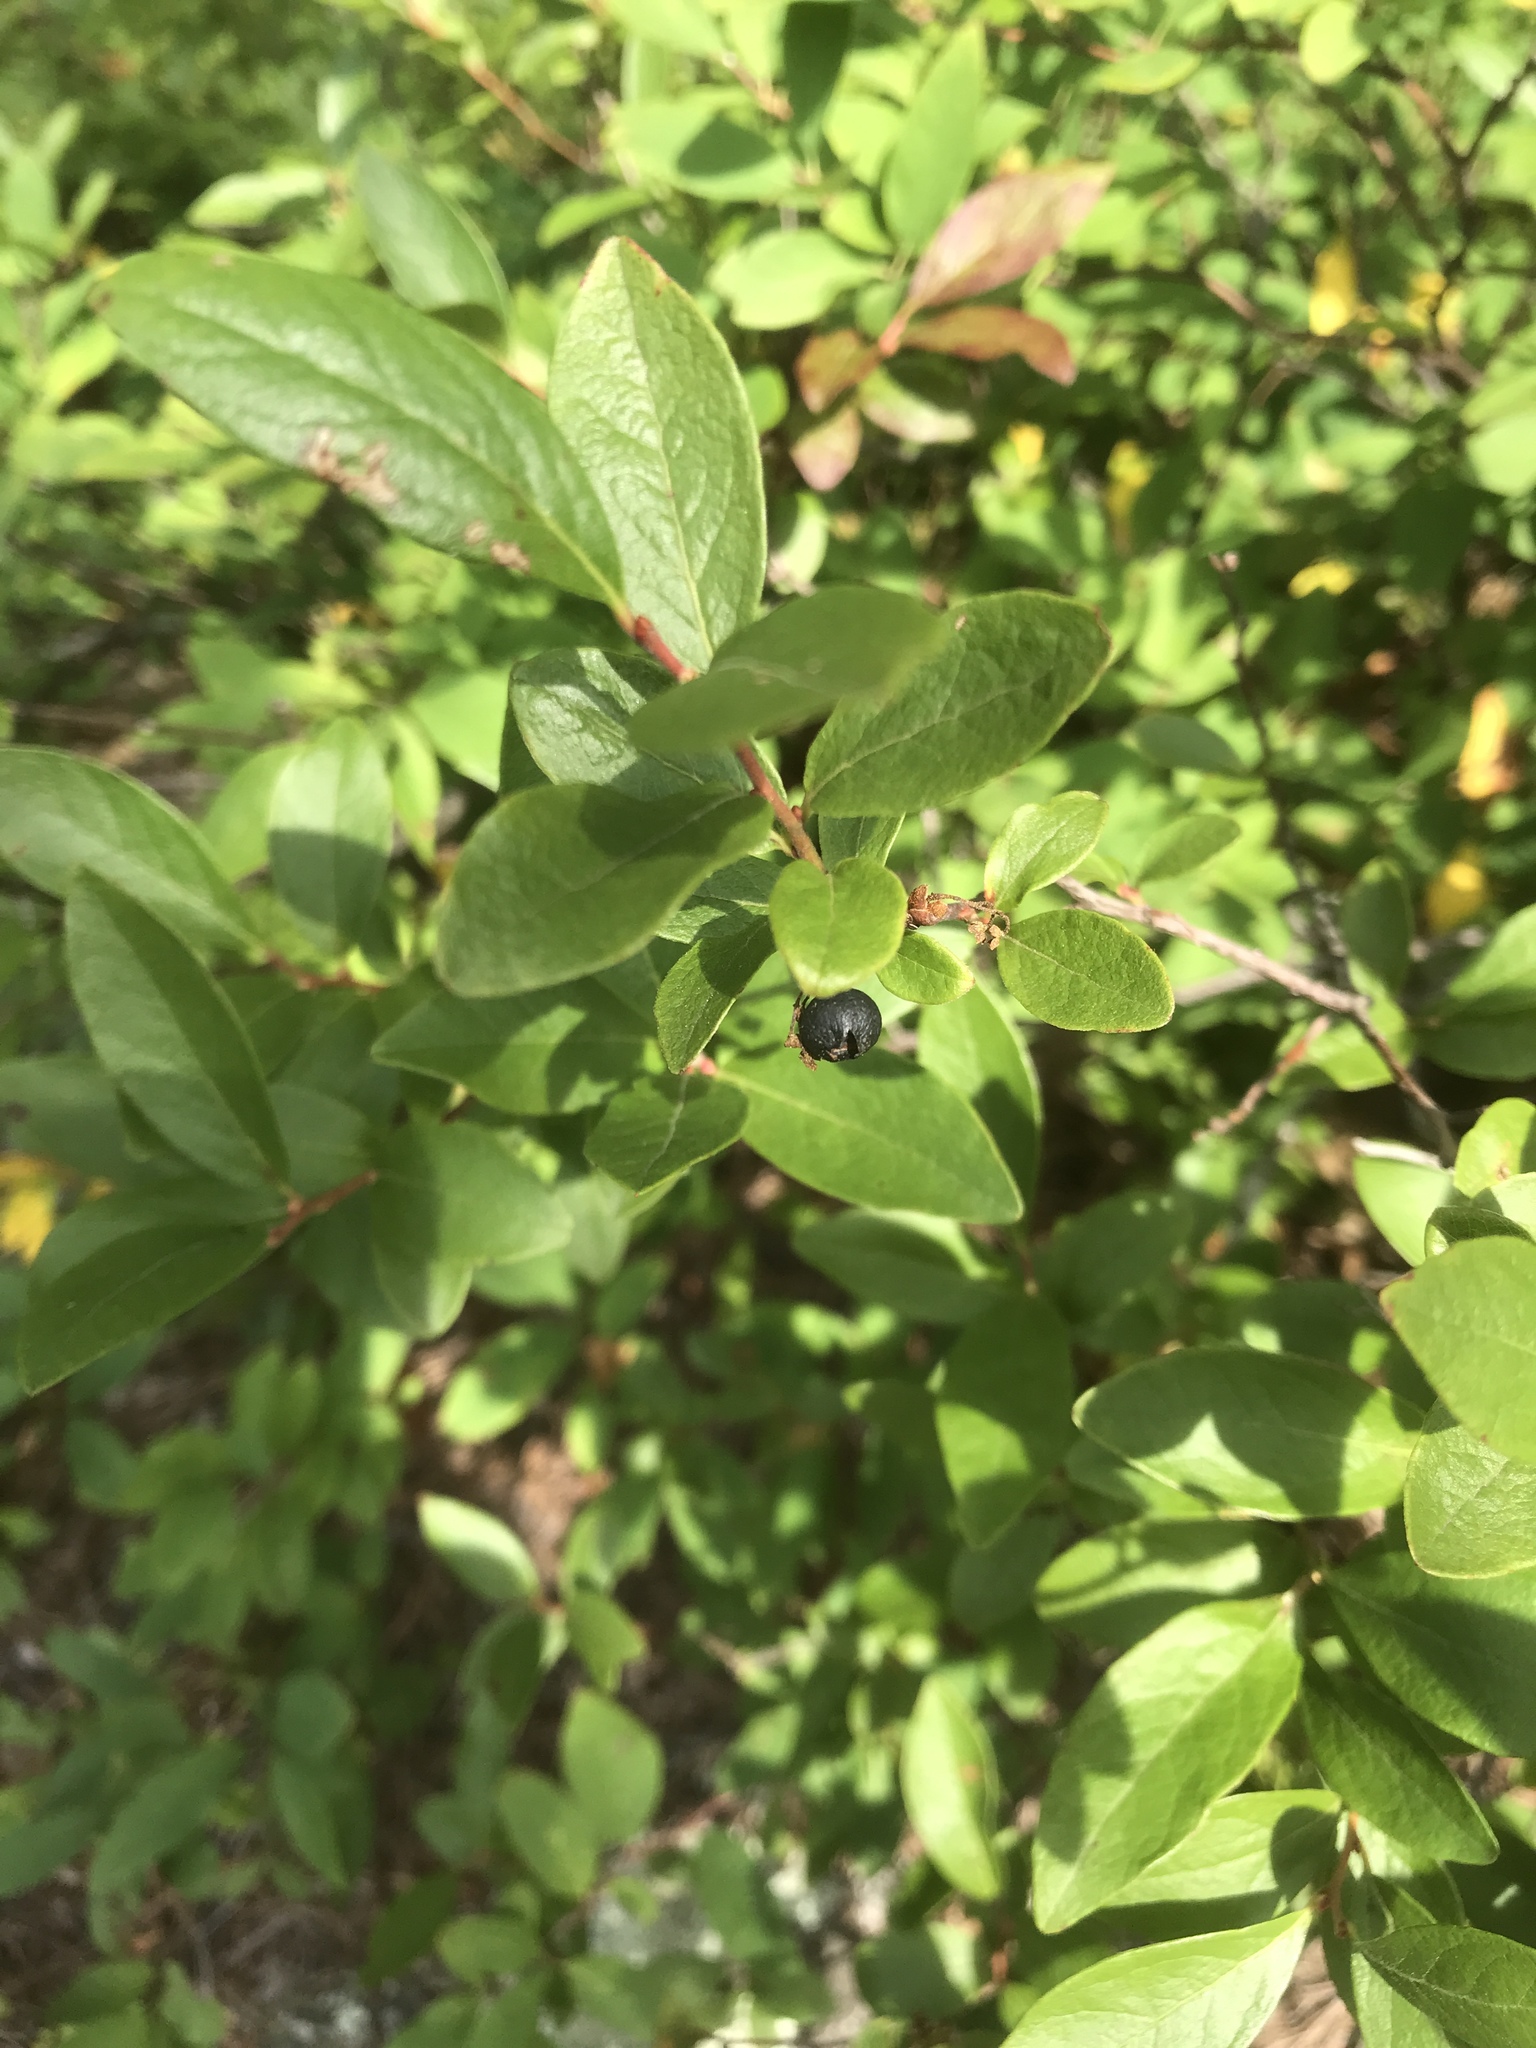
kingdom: Plantae
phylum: Tracheophyta
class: Magnoliopsida
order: Ericales
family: Ericaceae
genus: Gaylussacia
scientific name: Gaylussacia baccata
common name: Black huckleberry
